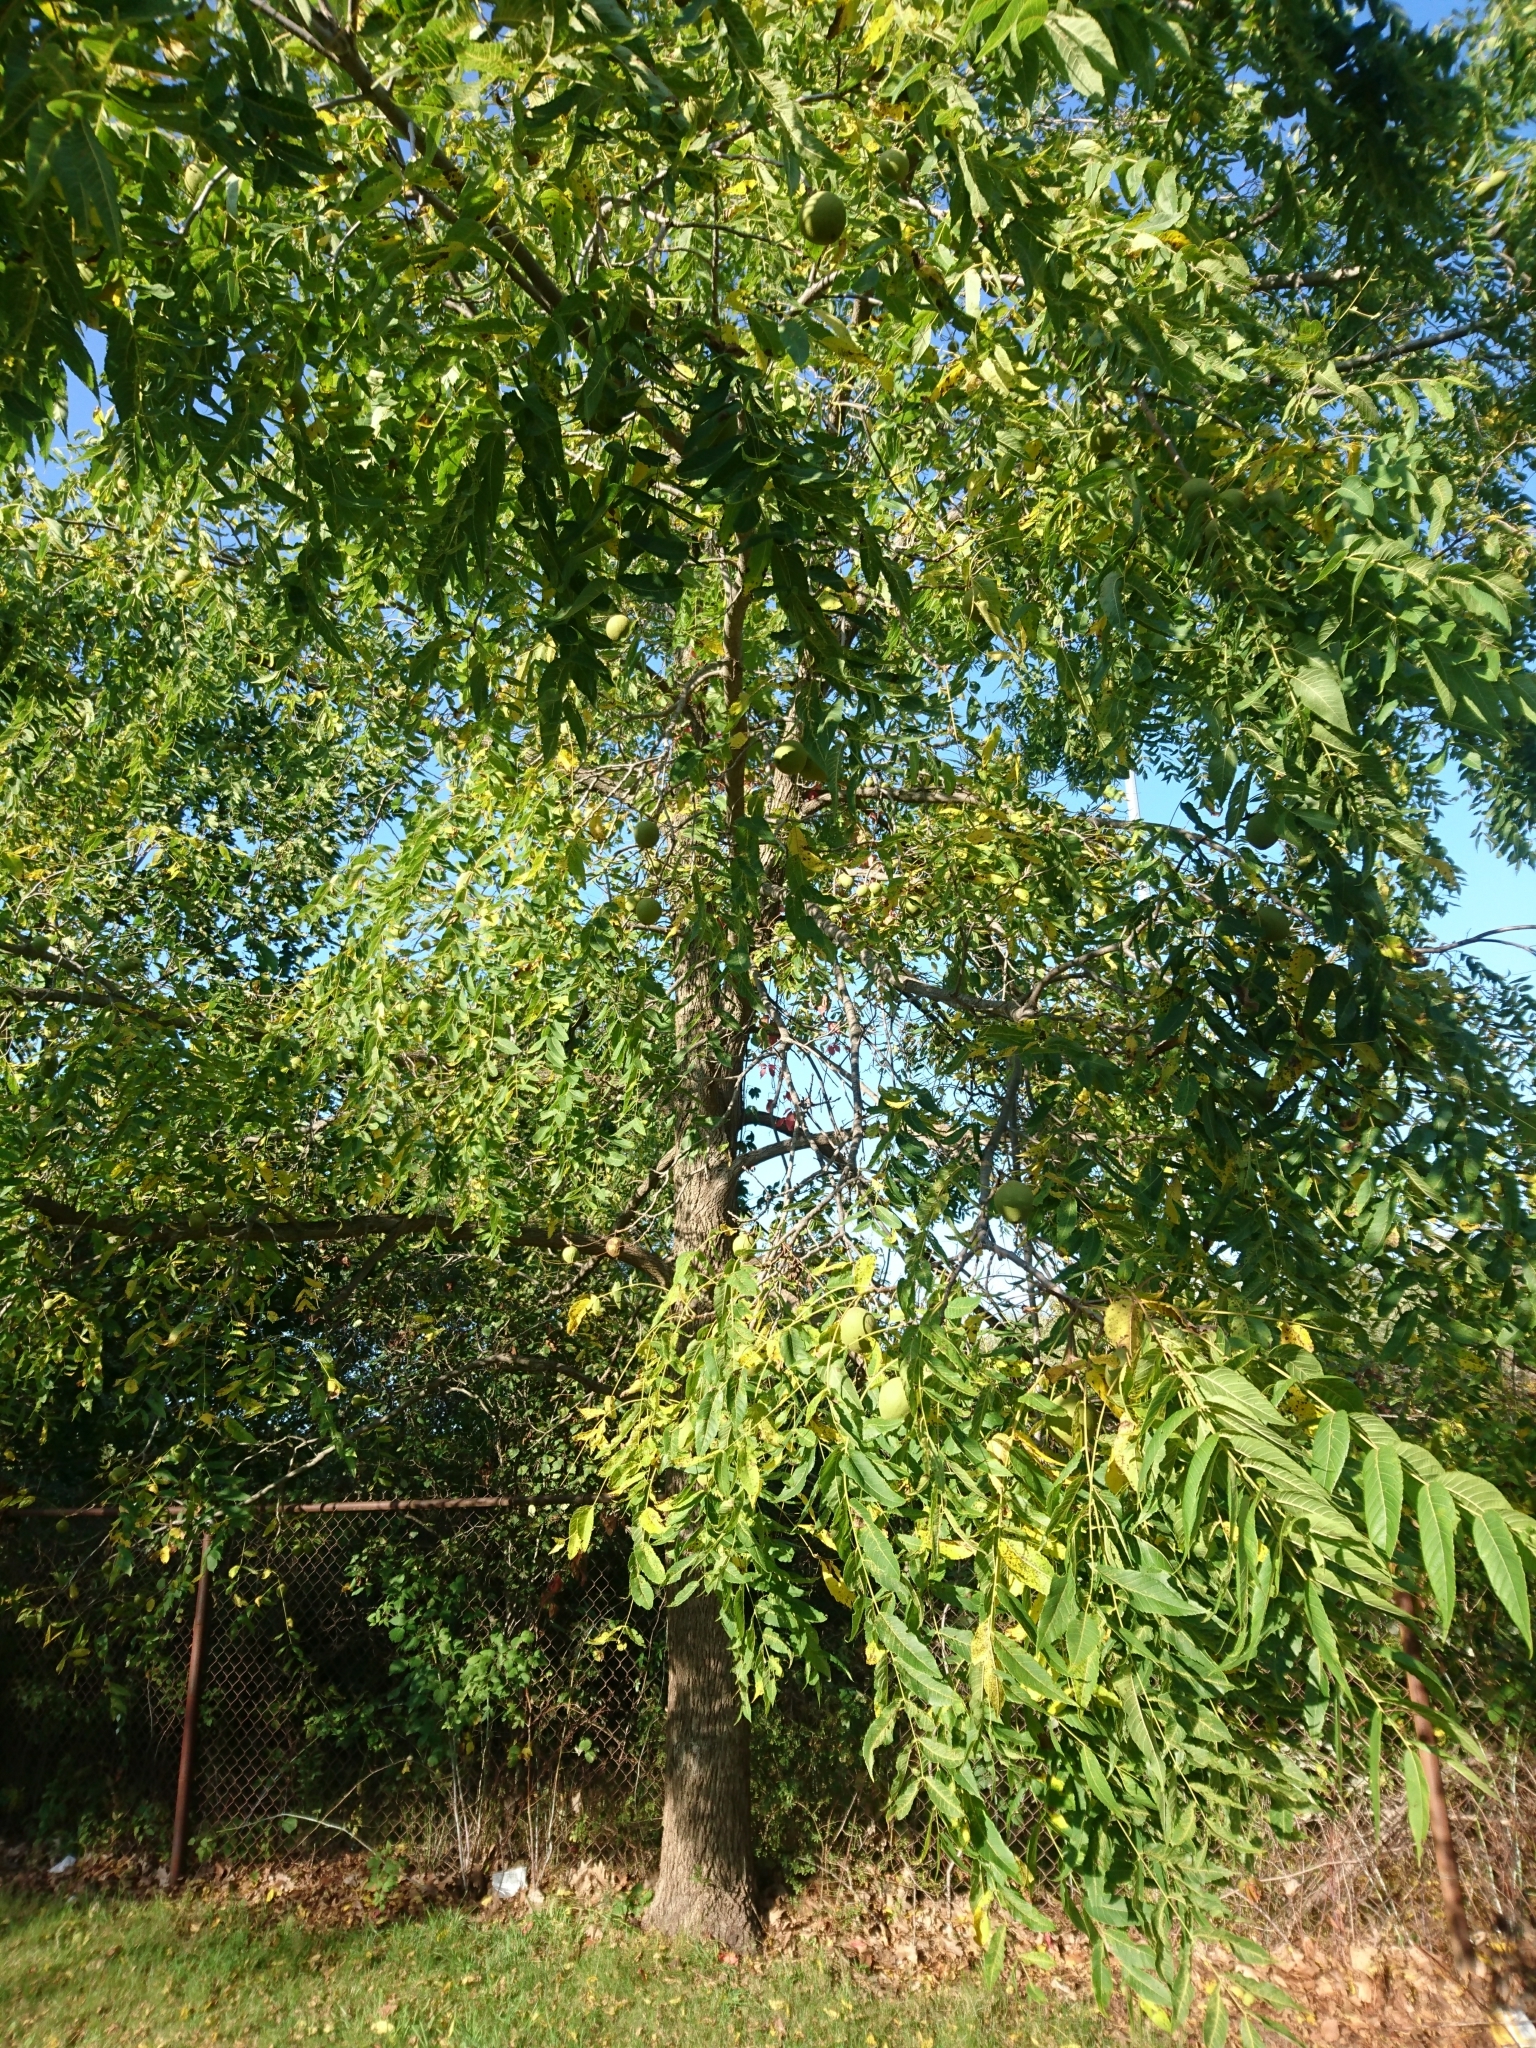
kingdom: Plantae
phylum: Tracheophyta
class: Magnoliopsida
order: Fagales
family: Juglandaceae
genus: Juglans
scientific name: Juglans nigra
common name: Black walnut
